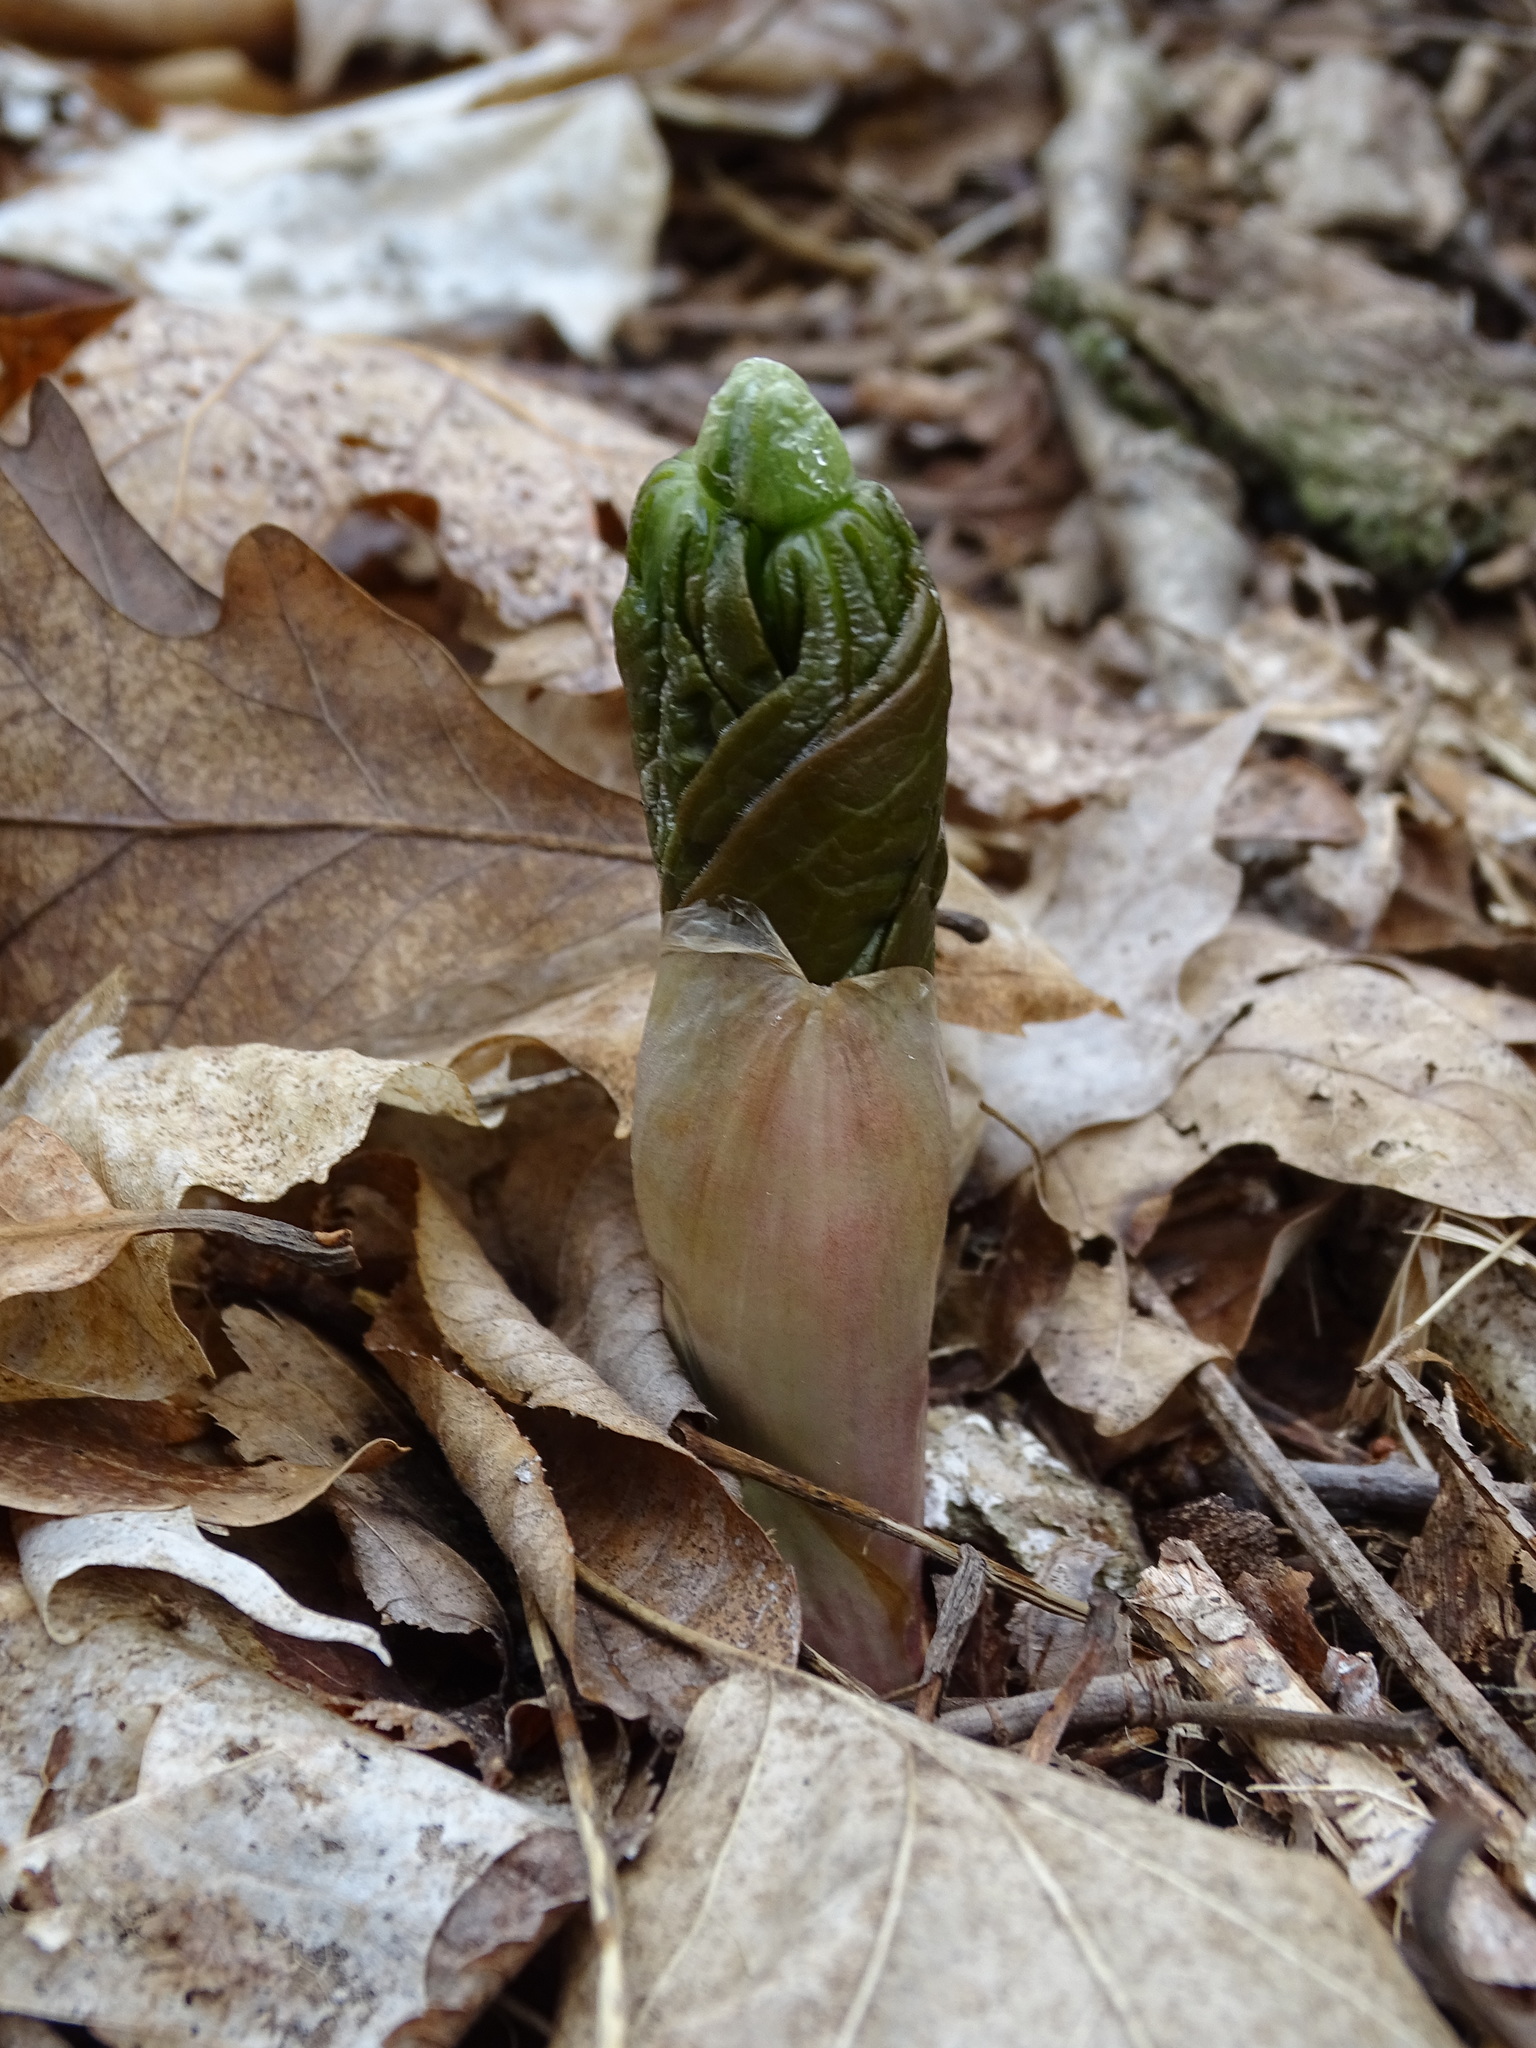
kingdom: Plantae
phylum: Tracheophyta
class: Magnoliopsida
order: Ranunculales
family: Berberidaceae
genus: Podophyllum
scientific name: Podophyllum peltatum
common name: Wild mandrake
